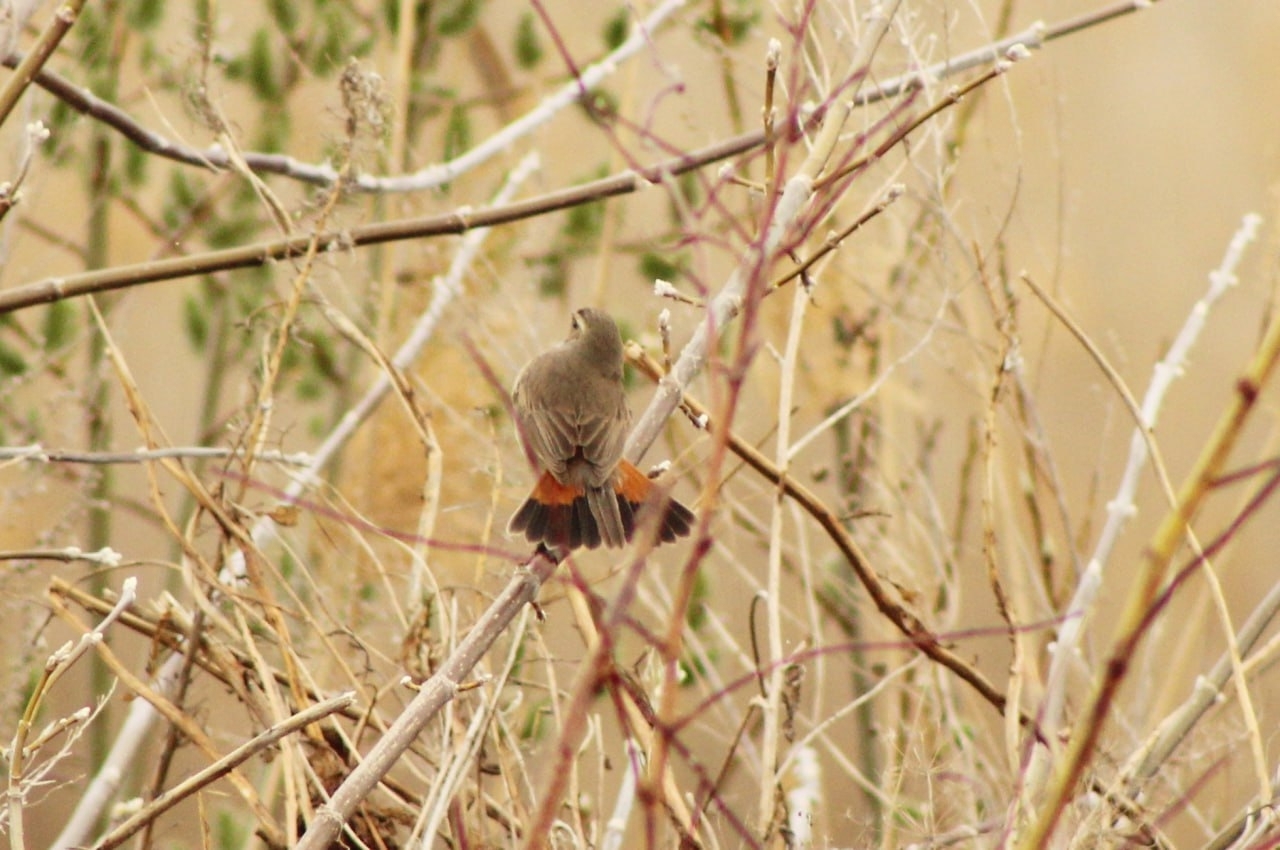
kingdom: Animalia
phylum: Chordata
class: Aves
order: Passeriformes
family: Muscicapidae
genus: Luscinia
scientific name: Luscinia svecica
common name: Bluethroat
